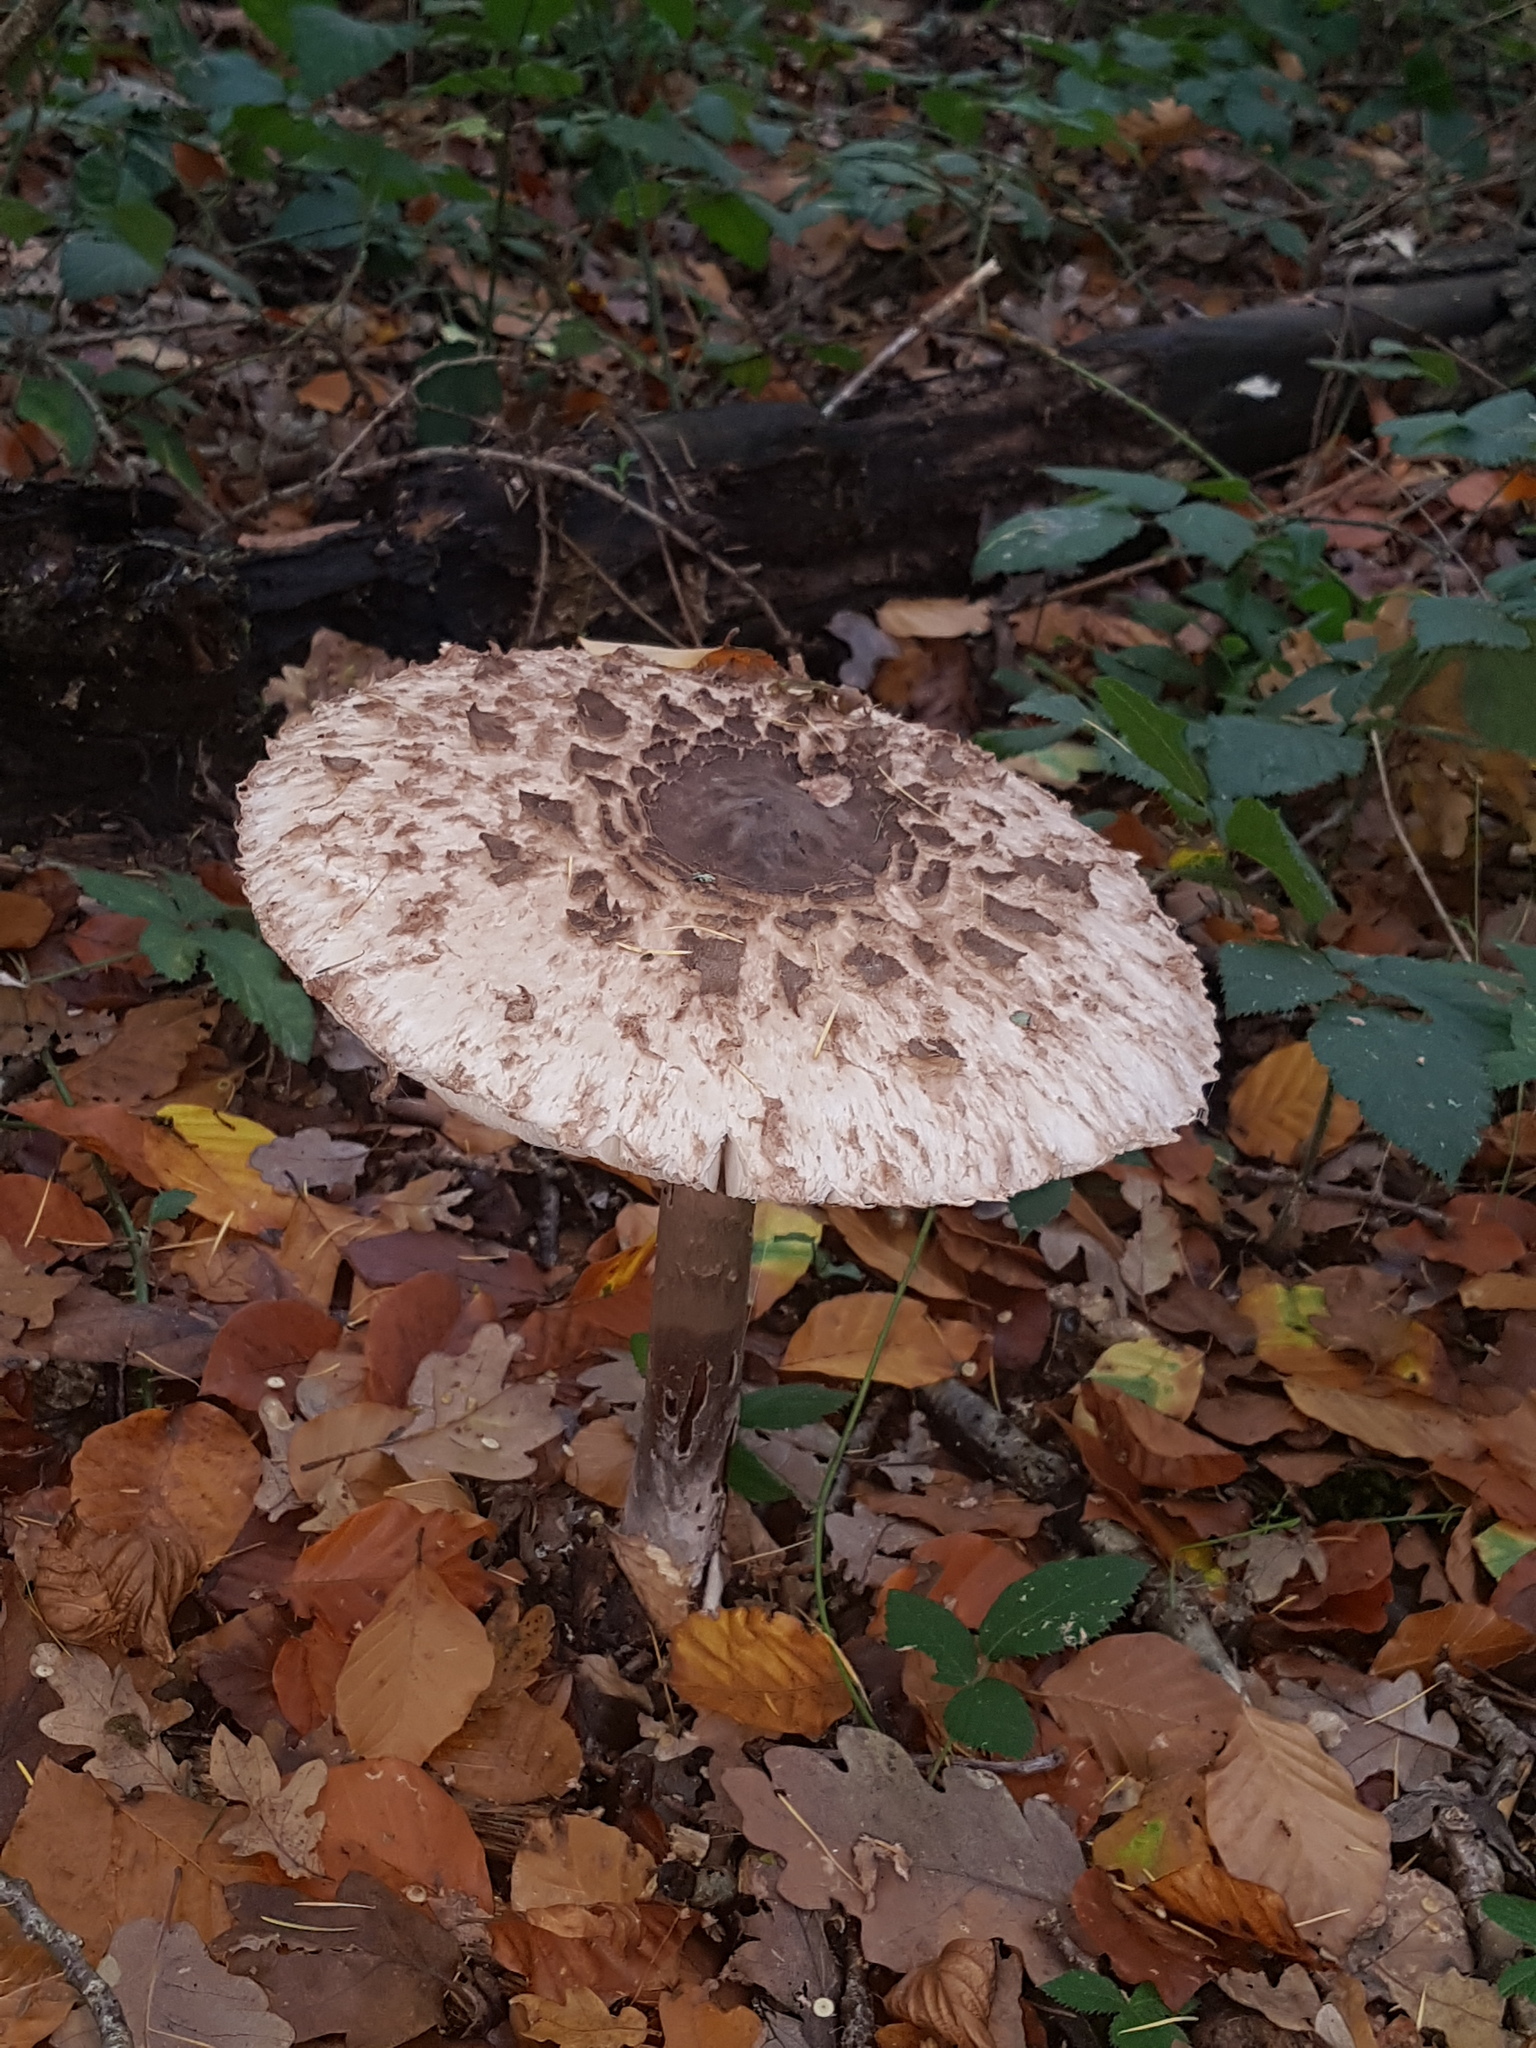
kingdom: Fungi
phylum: Basidiomycota
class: Agaricomycetes
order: Agaricales
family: Agaricaceae
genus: Macrolepiota
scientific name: Macrolepiota procera
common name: Parasol
